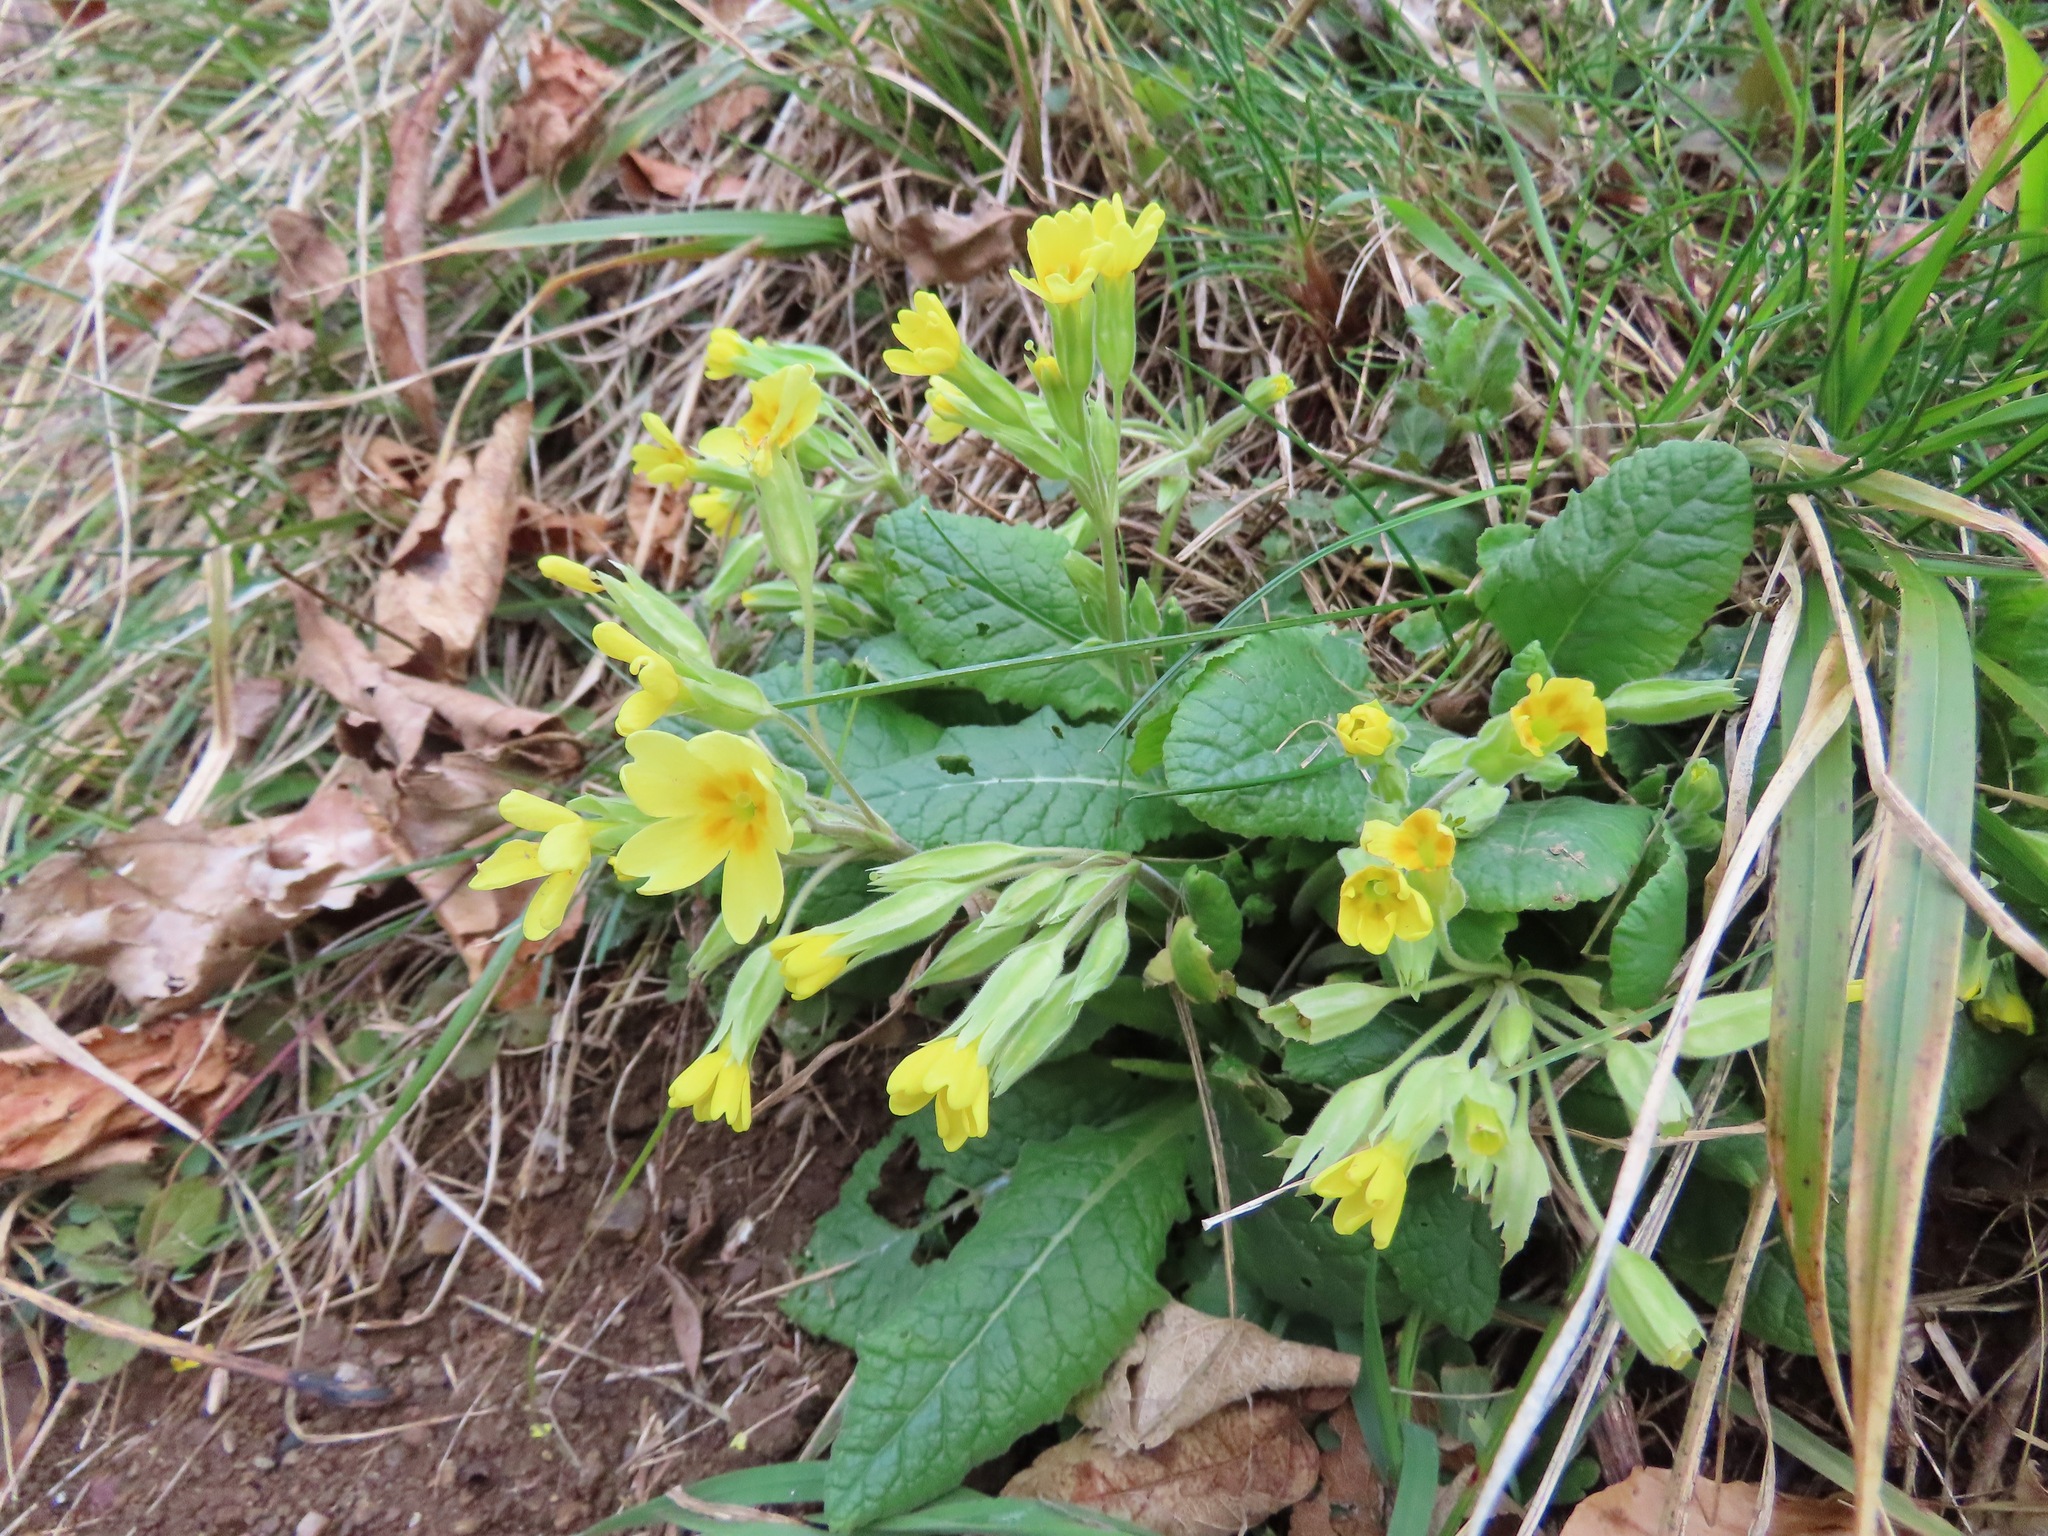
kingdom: Plantae
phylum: Tracheophyta
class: Magnoliopsida
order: Ericales
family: Primulaceae
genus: Primula
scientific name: Primula veris
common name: Cowslip
